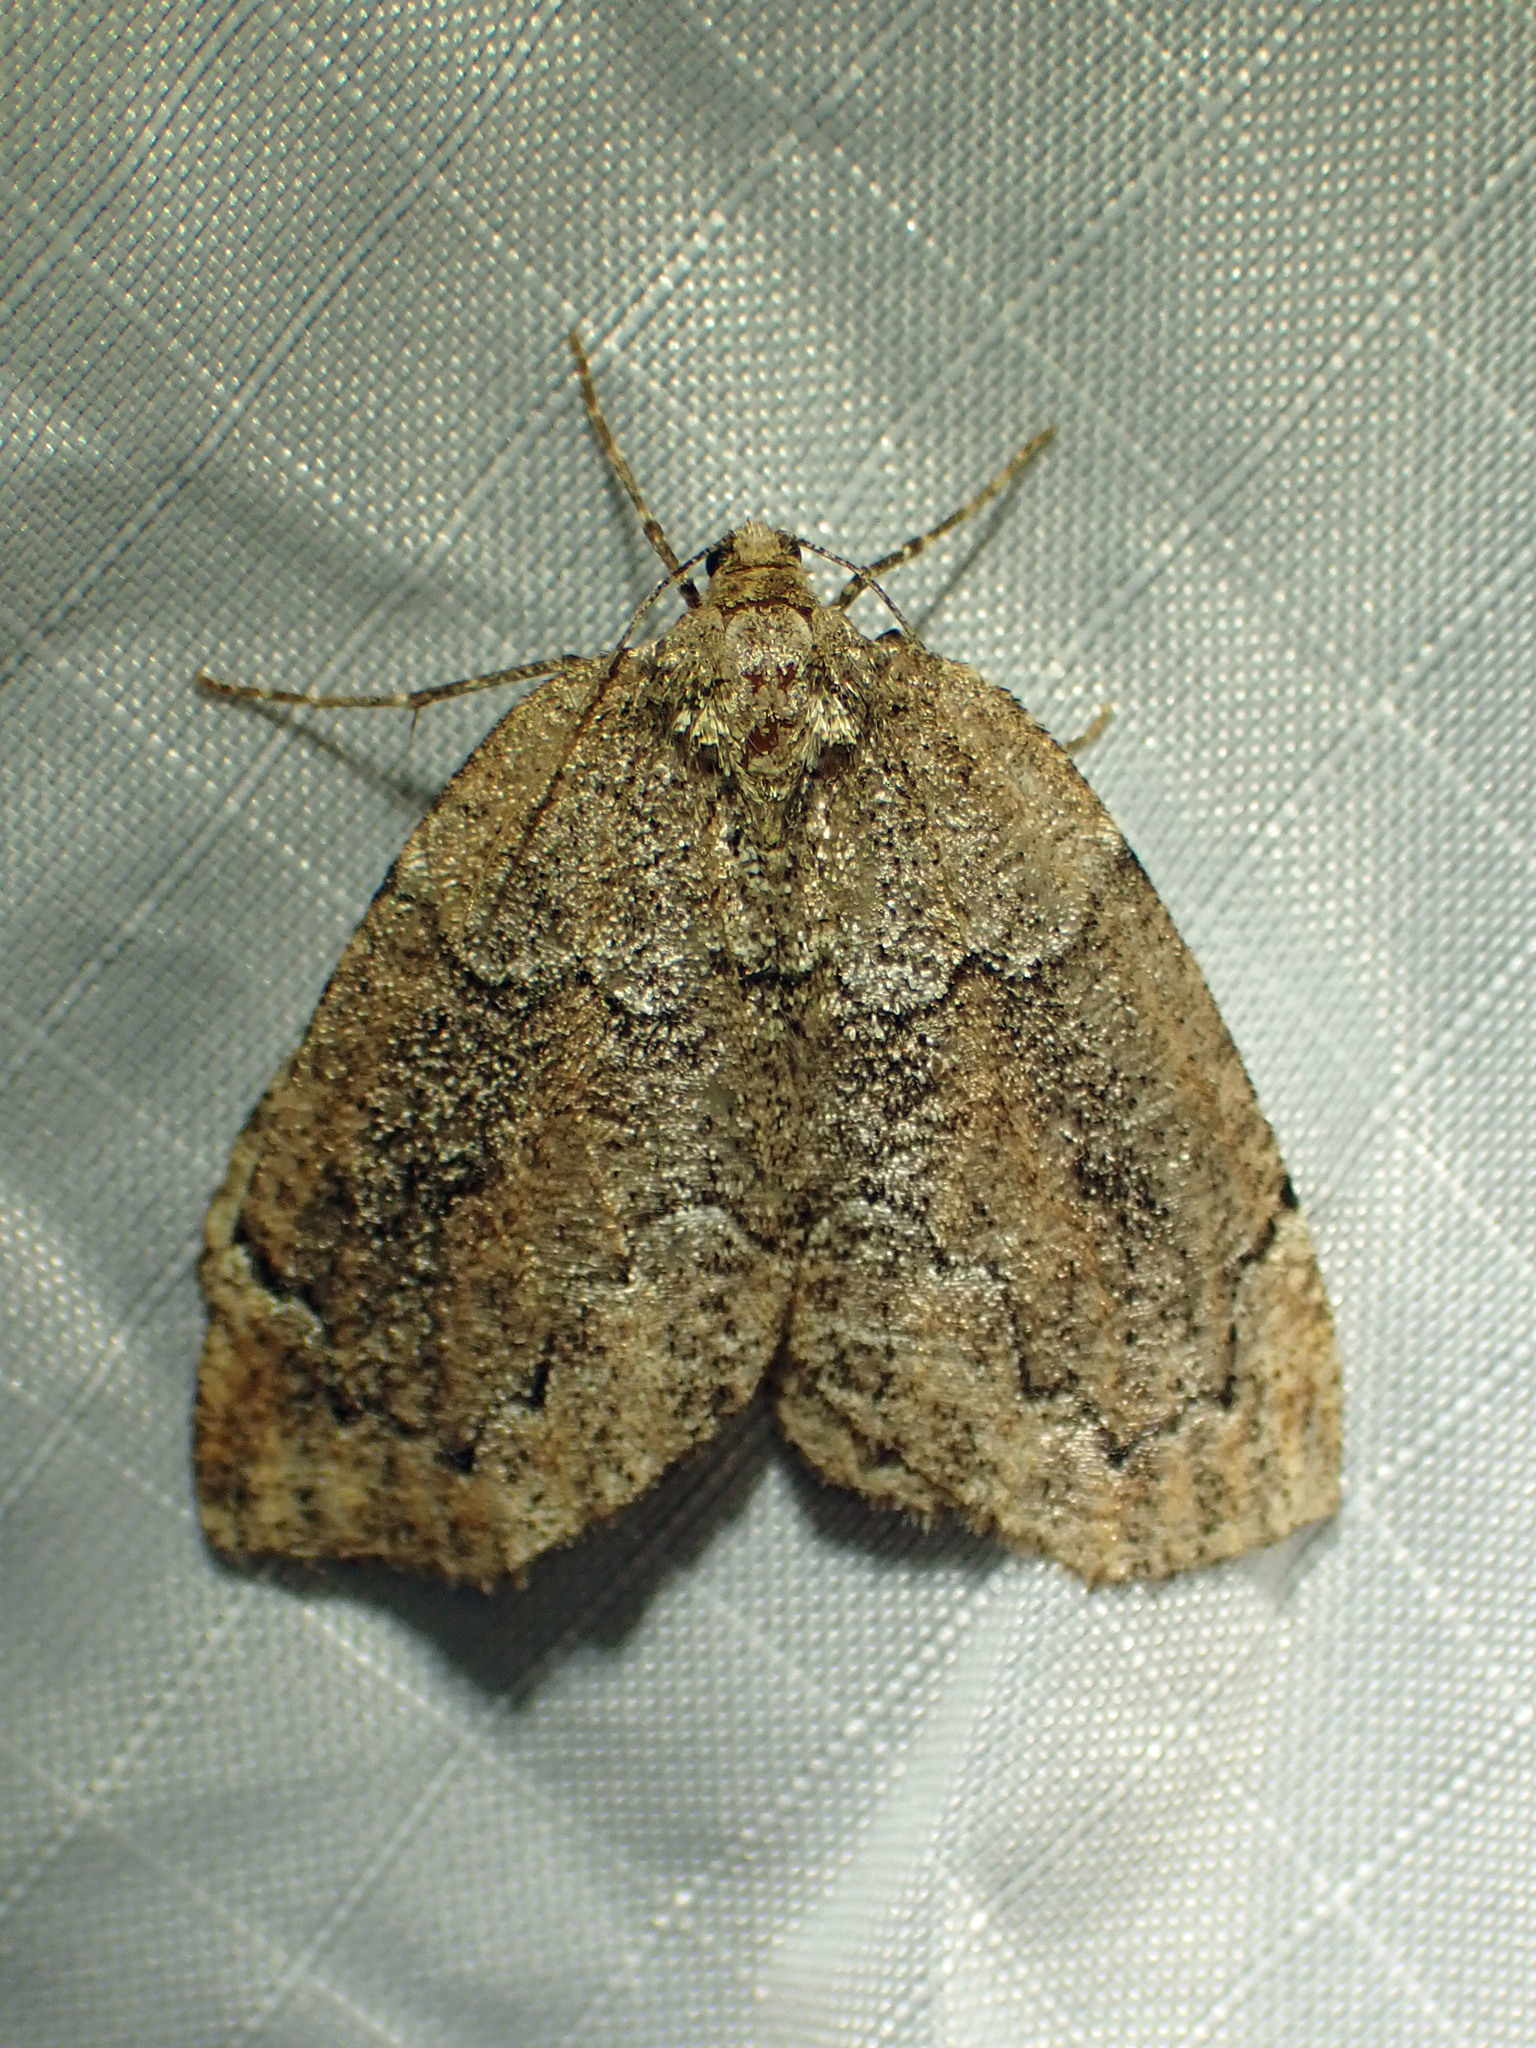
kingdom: Animalia
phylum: Arthropoda
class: Insecta
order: Lepidoptera
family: Geometridae
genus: Spodolepis
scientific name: Spodolepis substriataria
